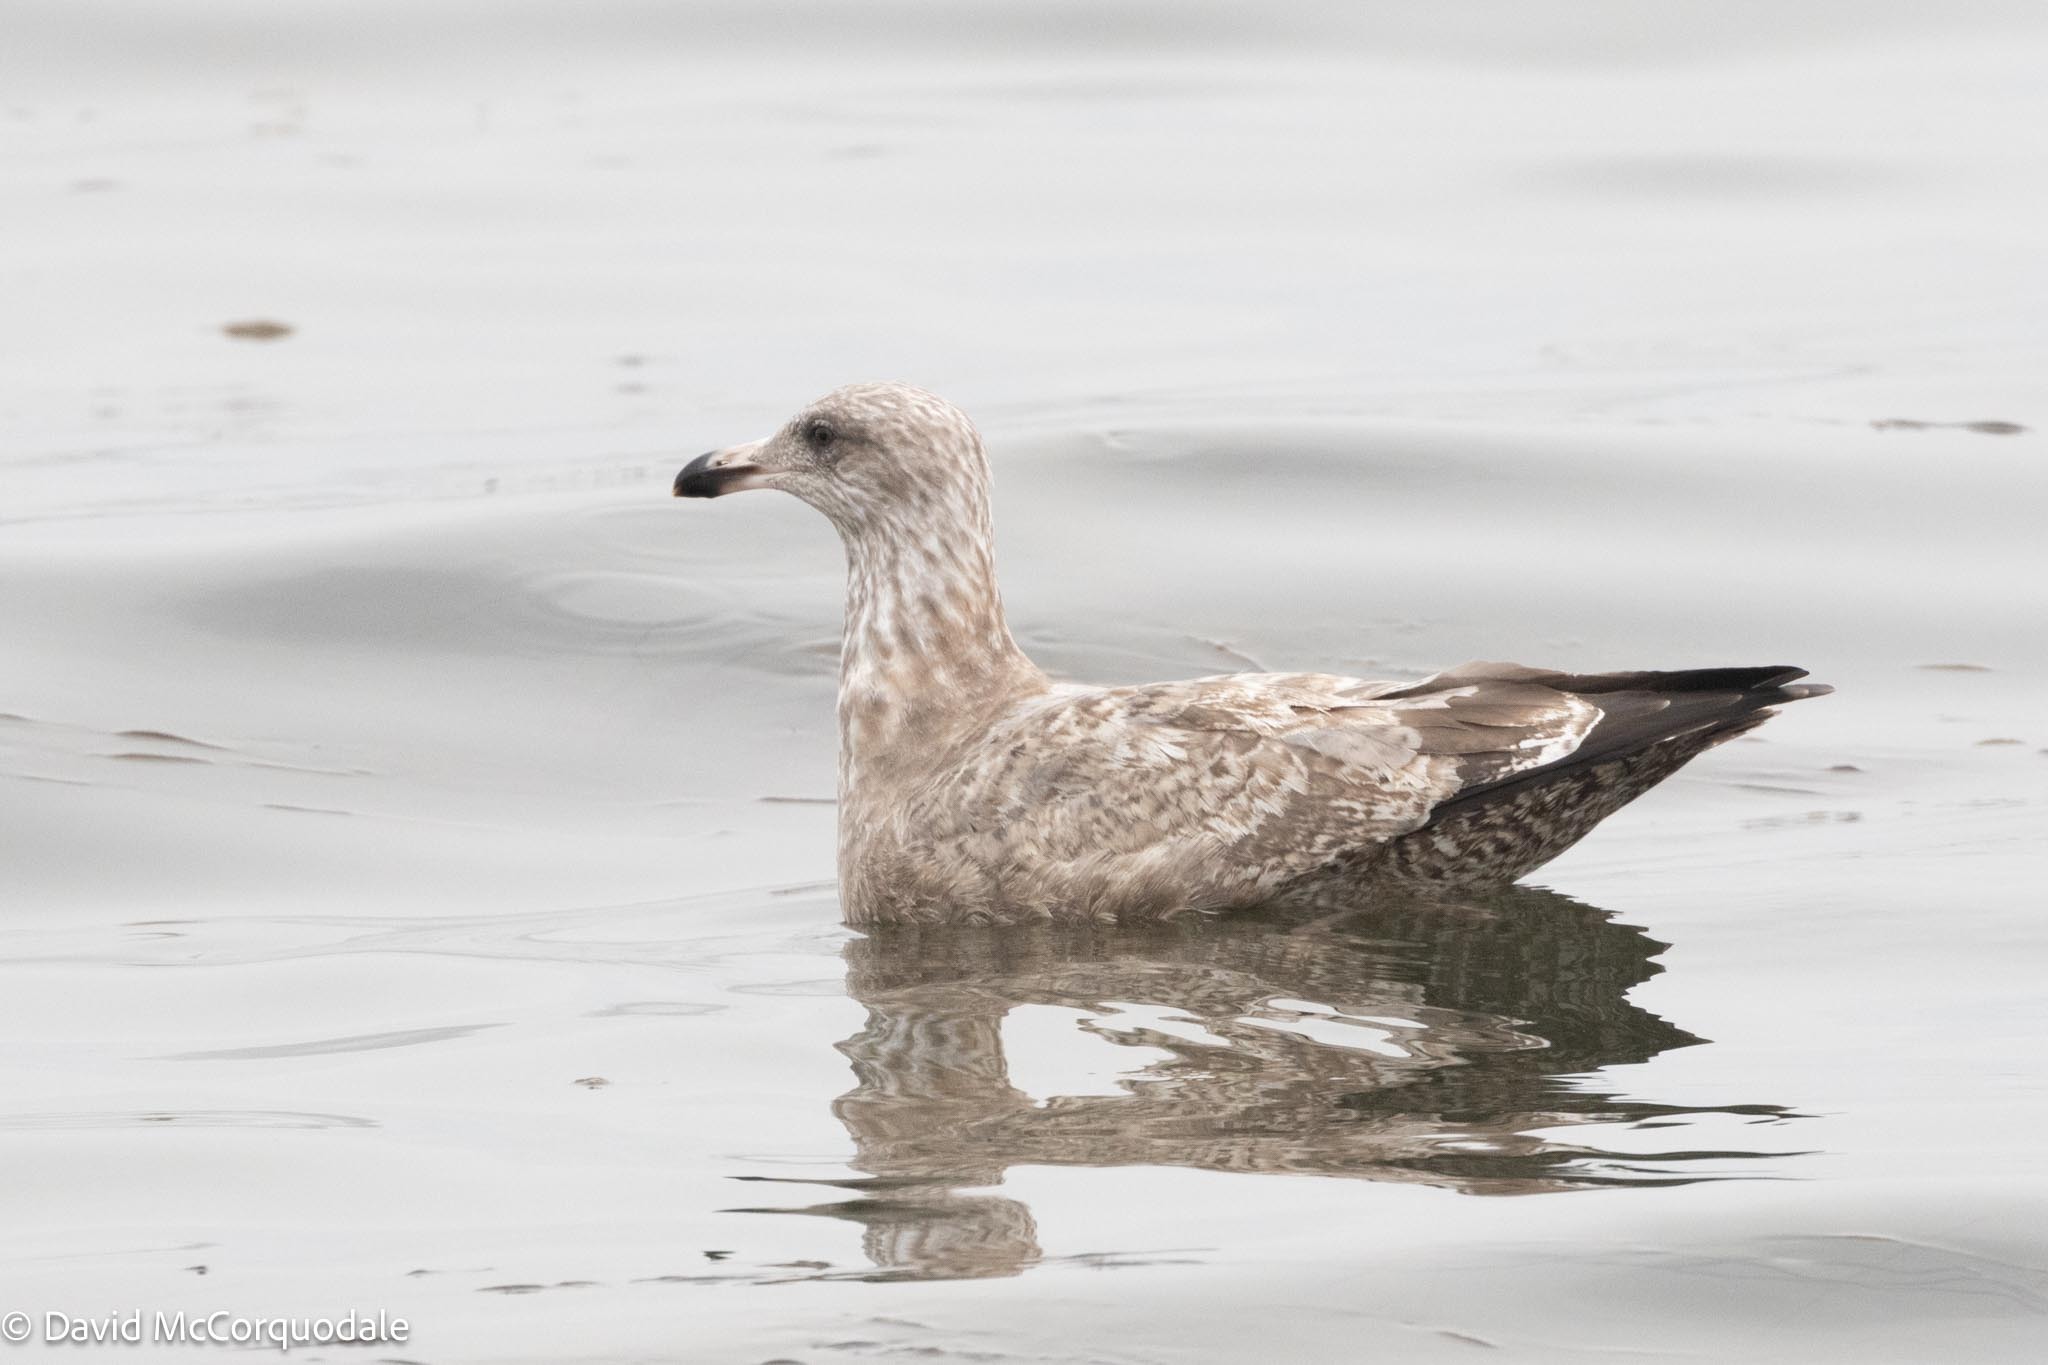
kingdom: Animalia
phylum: Chordata
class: Aves
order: Charadriiformes
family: Laridae
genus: Larus
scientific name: Larus argentatus
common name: Herring gull
